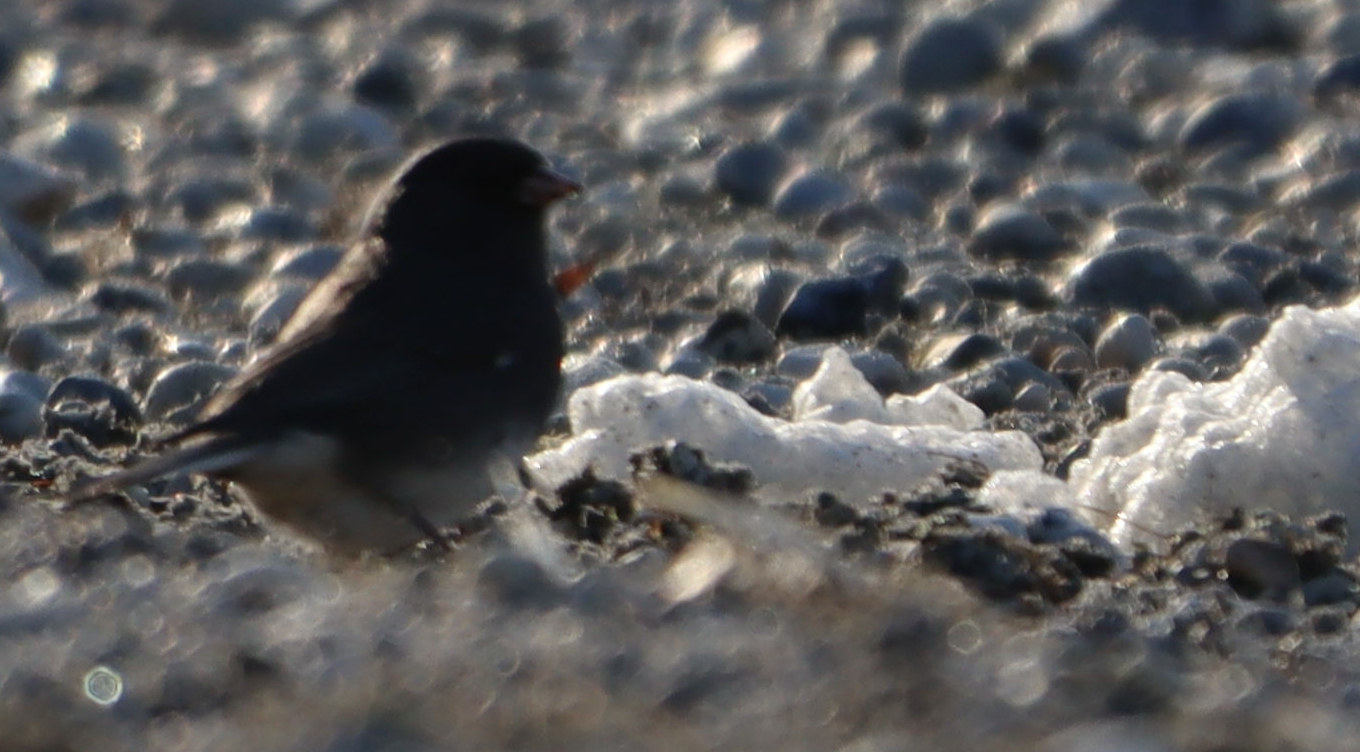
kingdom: Animalia
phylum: Chordata
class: Aves
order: Passeriformes
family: Passerellidae
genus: Junco
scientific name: Junco hyemalis
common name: Dark-eyed junco
